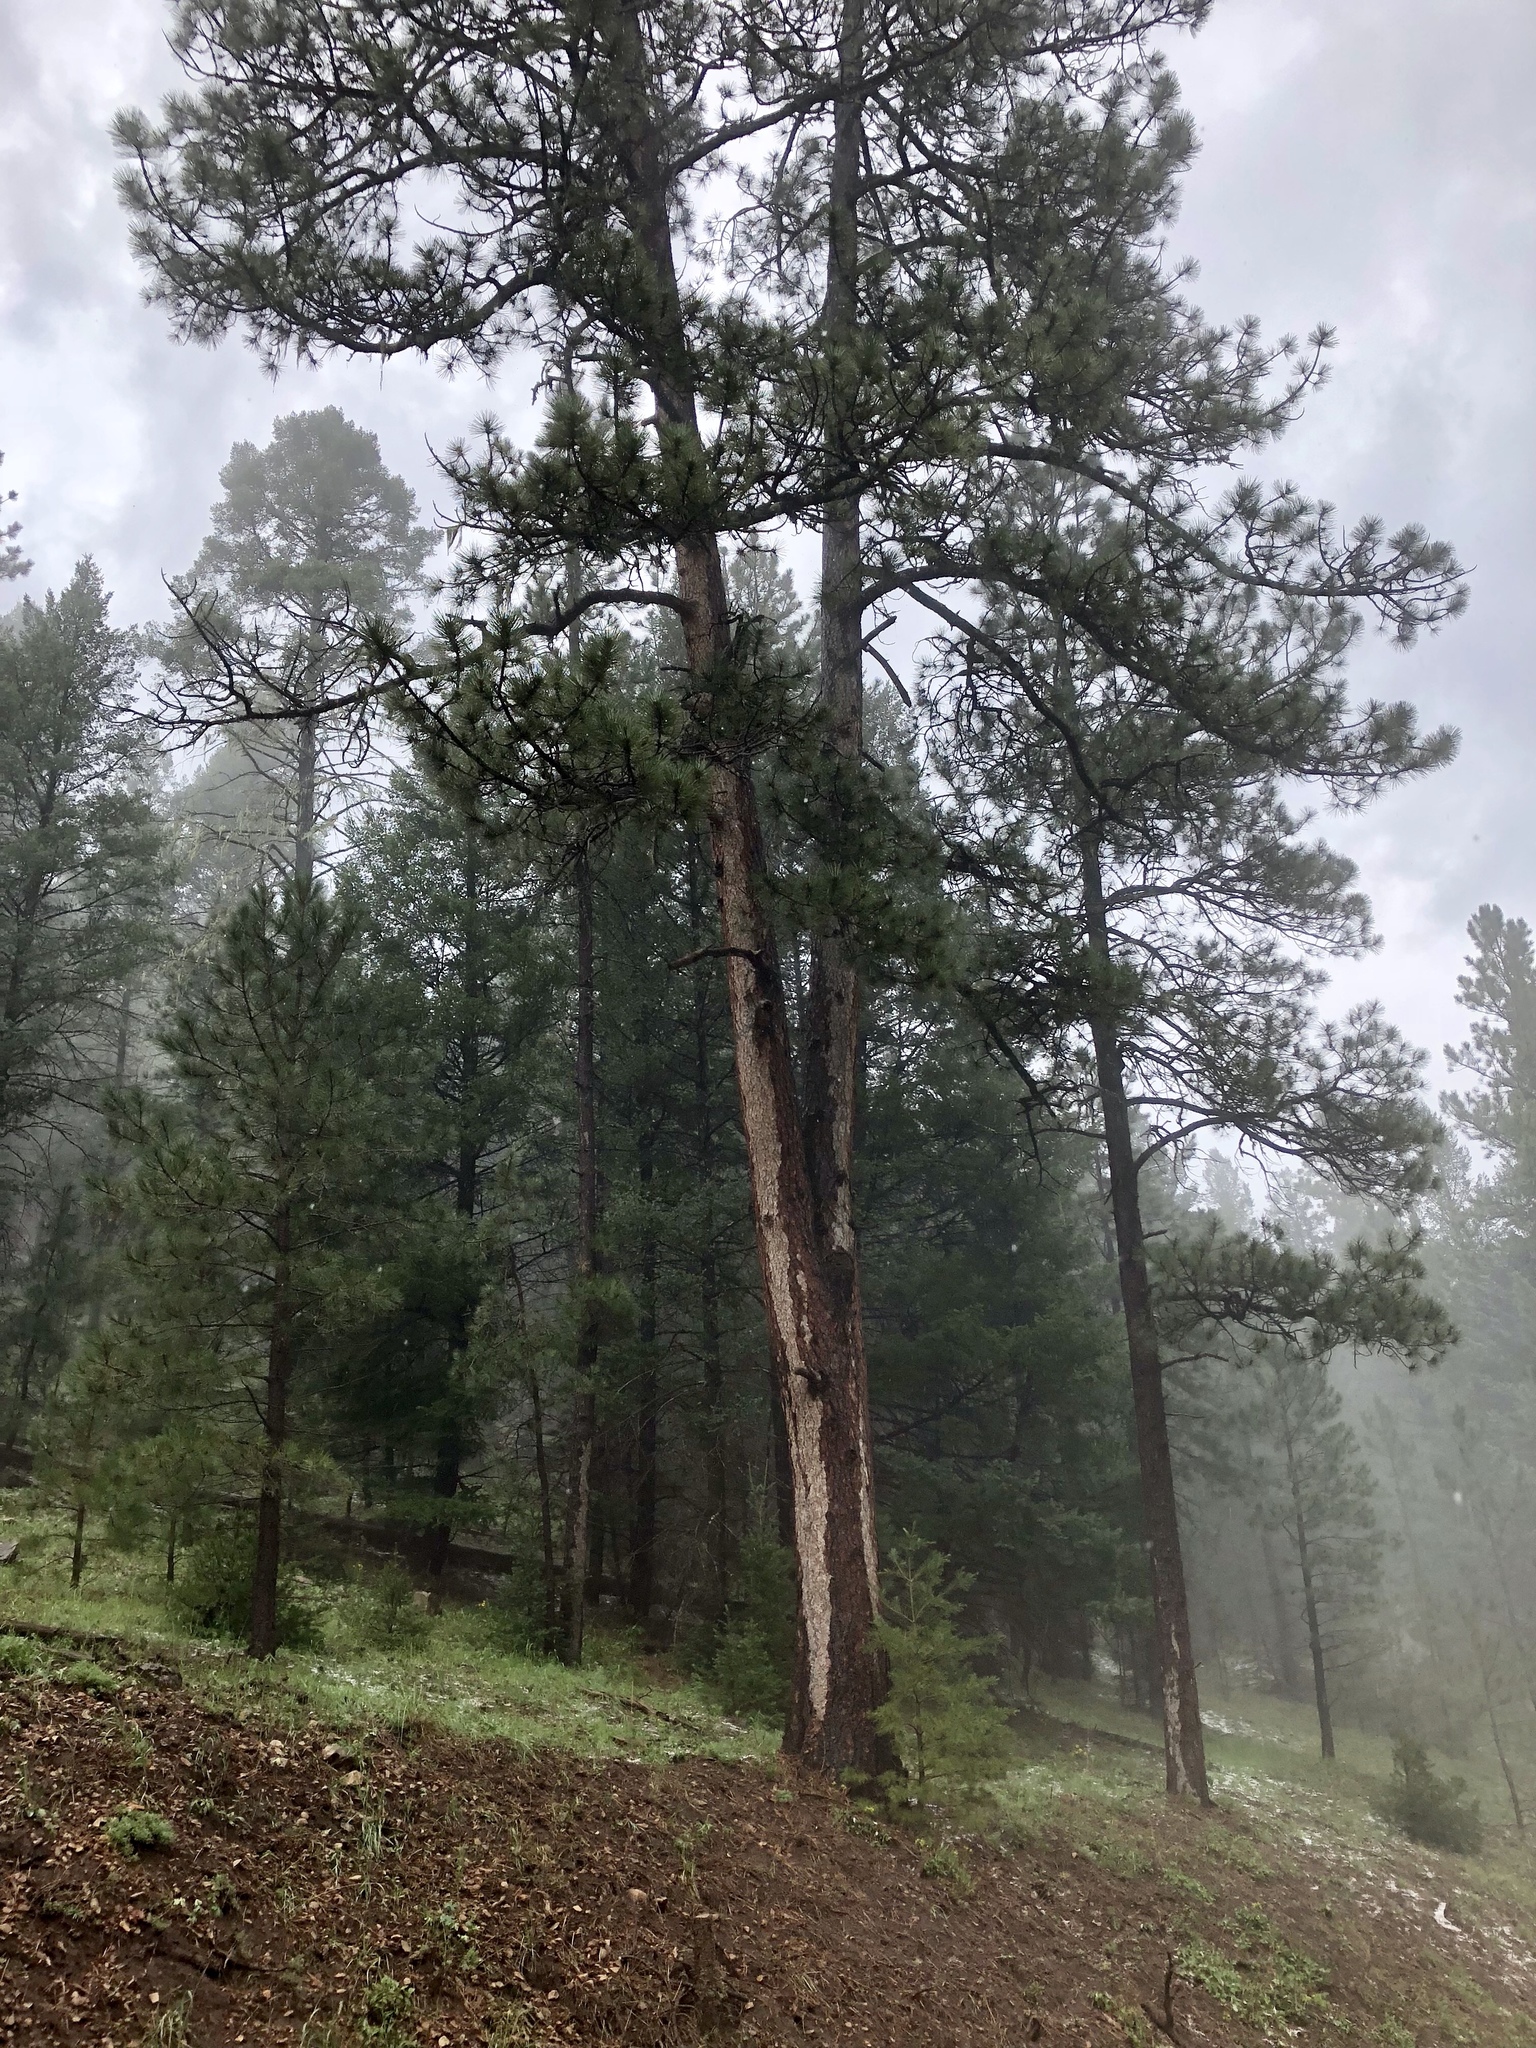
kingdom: Plantae
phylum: Tracheophyta
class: Pinopsida
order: Pinales
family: Pinaceae
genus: Pinus
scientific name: Pinus ponderosa
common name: Western yellow-pine
